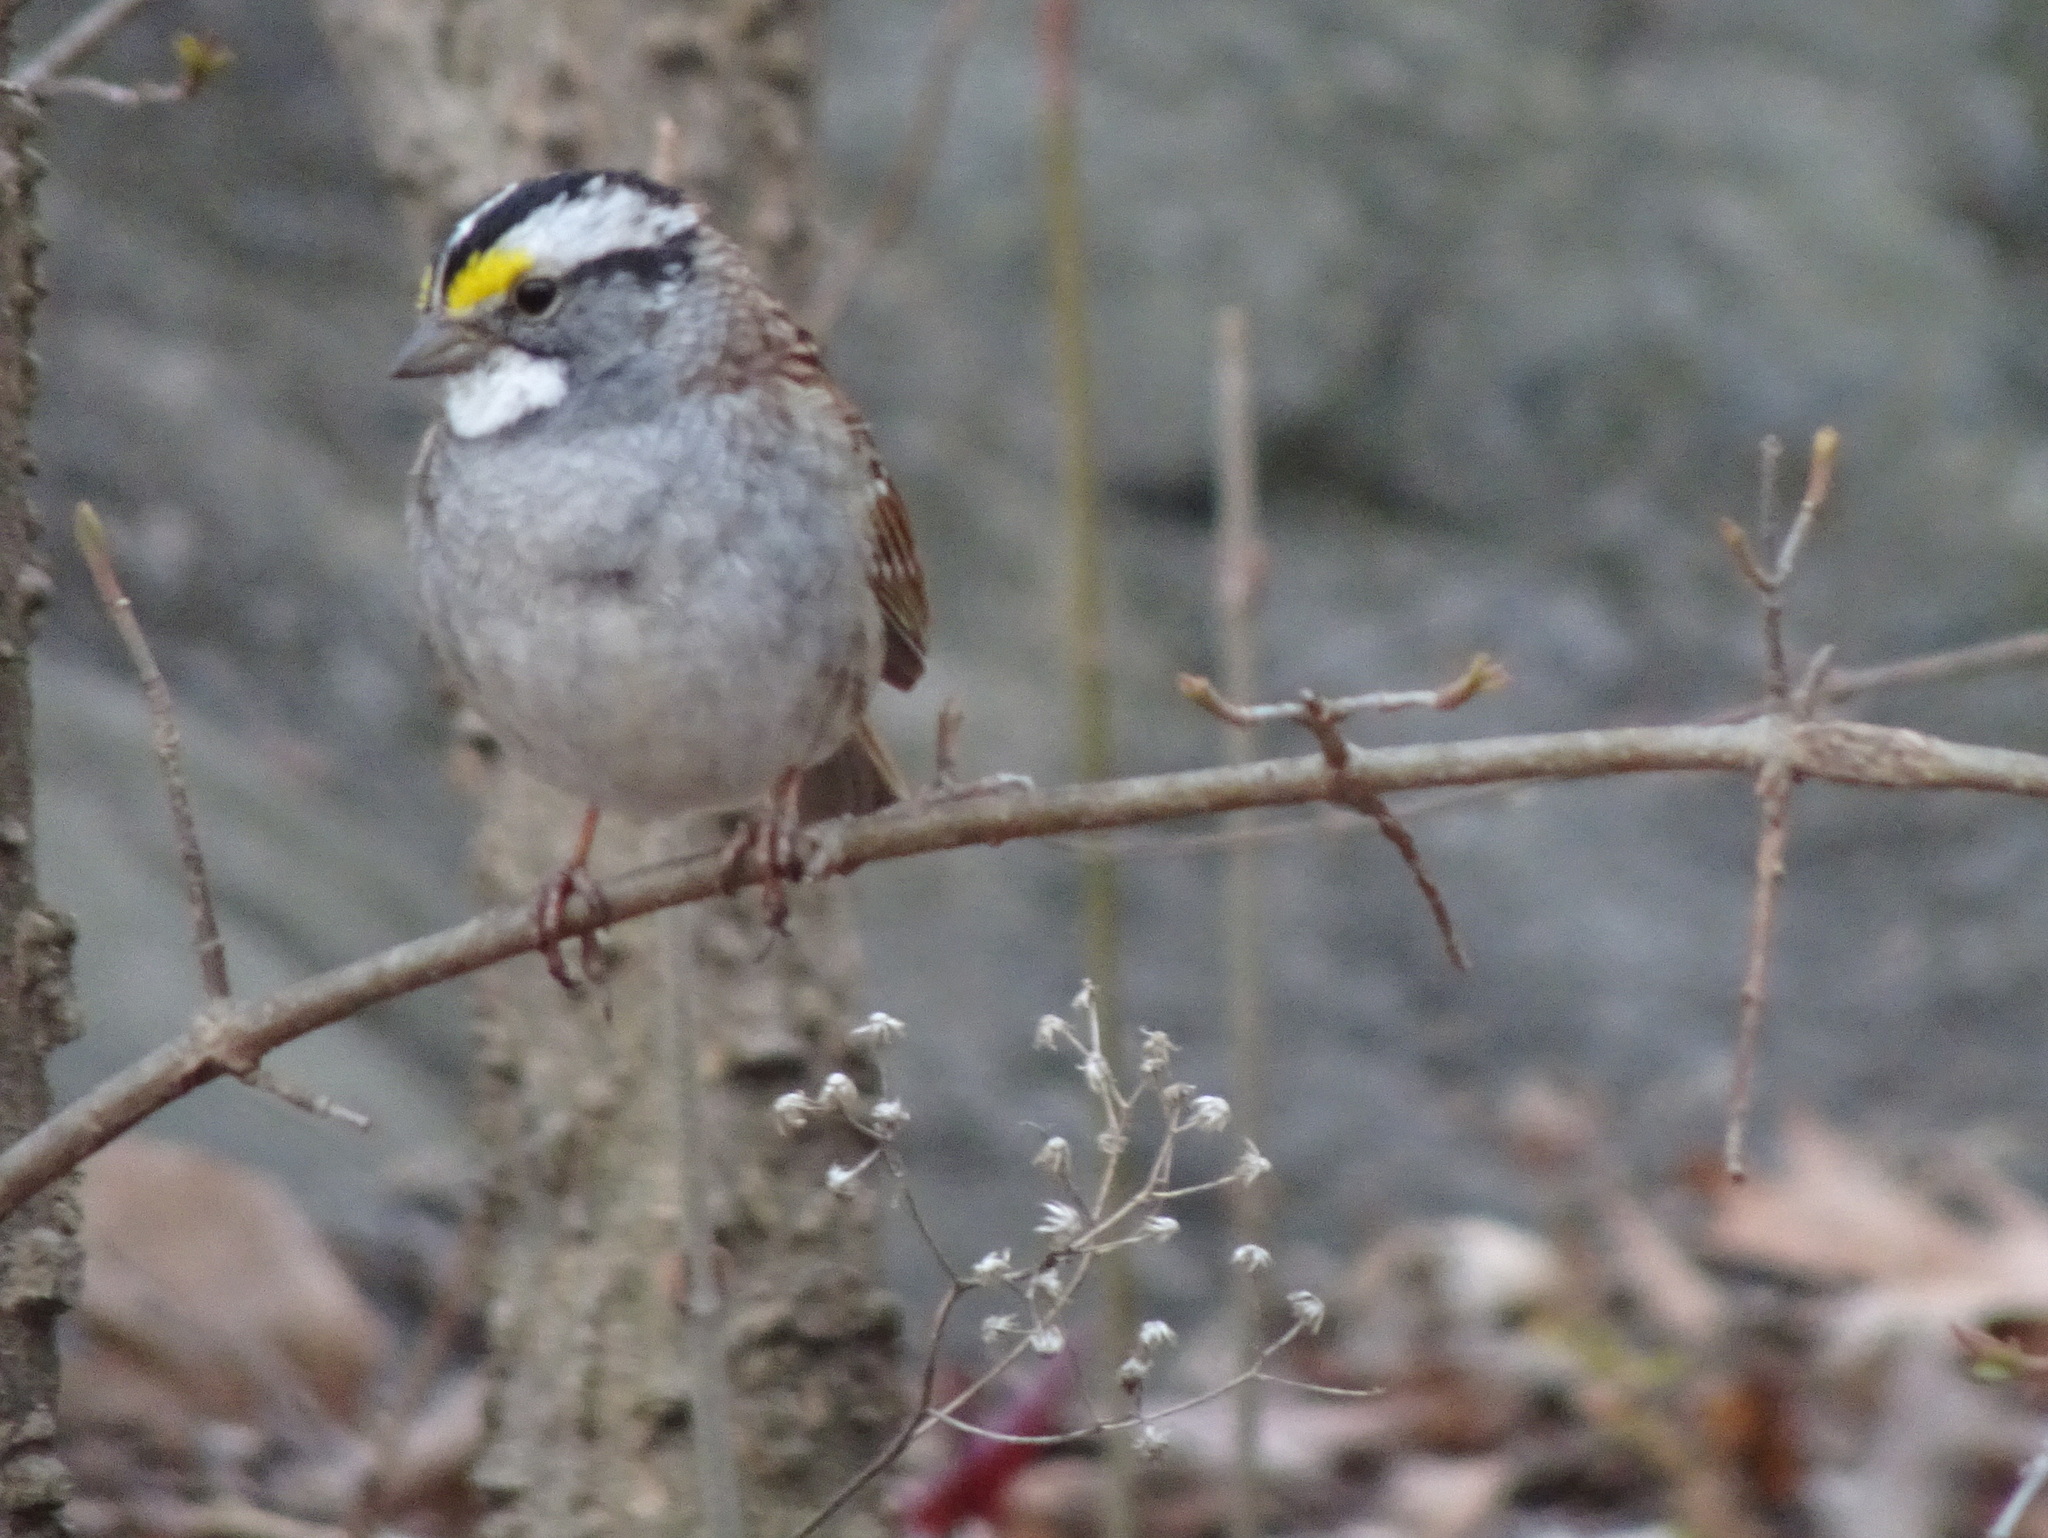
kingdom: Animalia
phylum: Chordata
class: Aves
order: Passeriformes
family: Passerellidae
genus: Zonotrichia
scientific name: Zonotrichia albicollis
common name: White-throated sparrow
